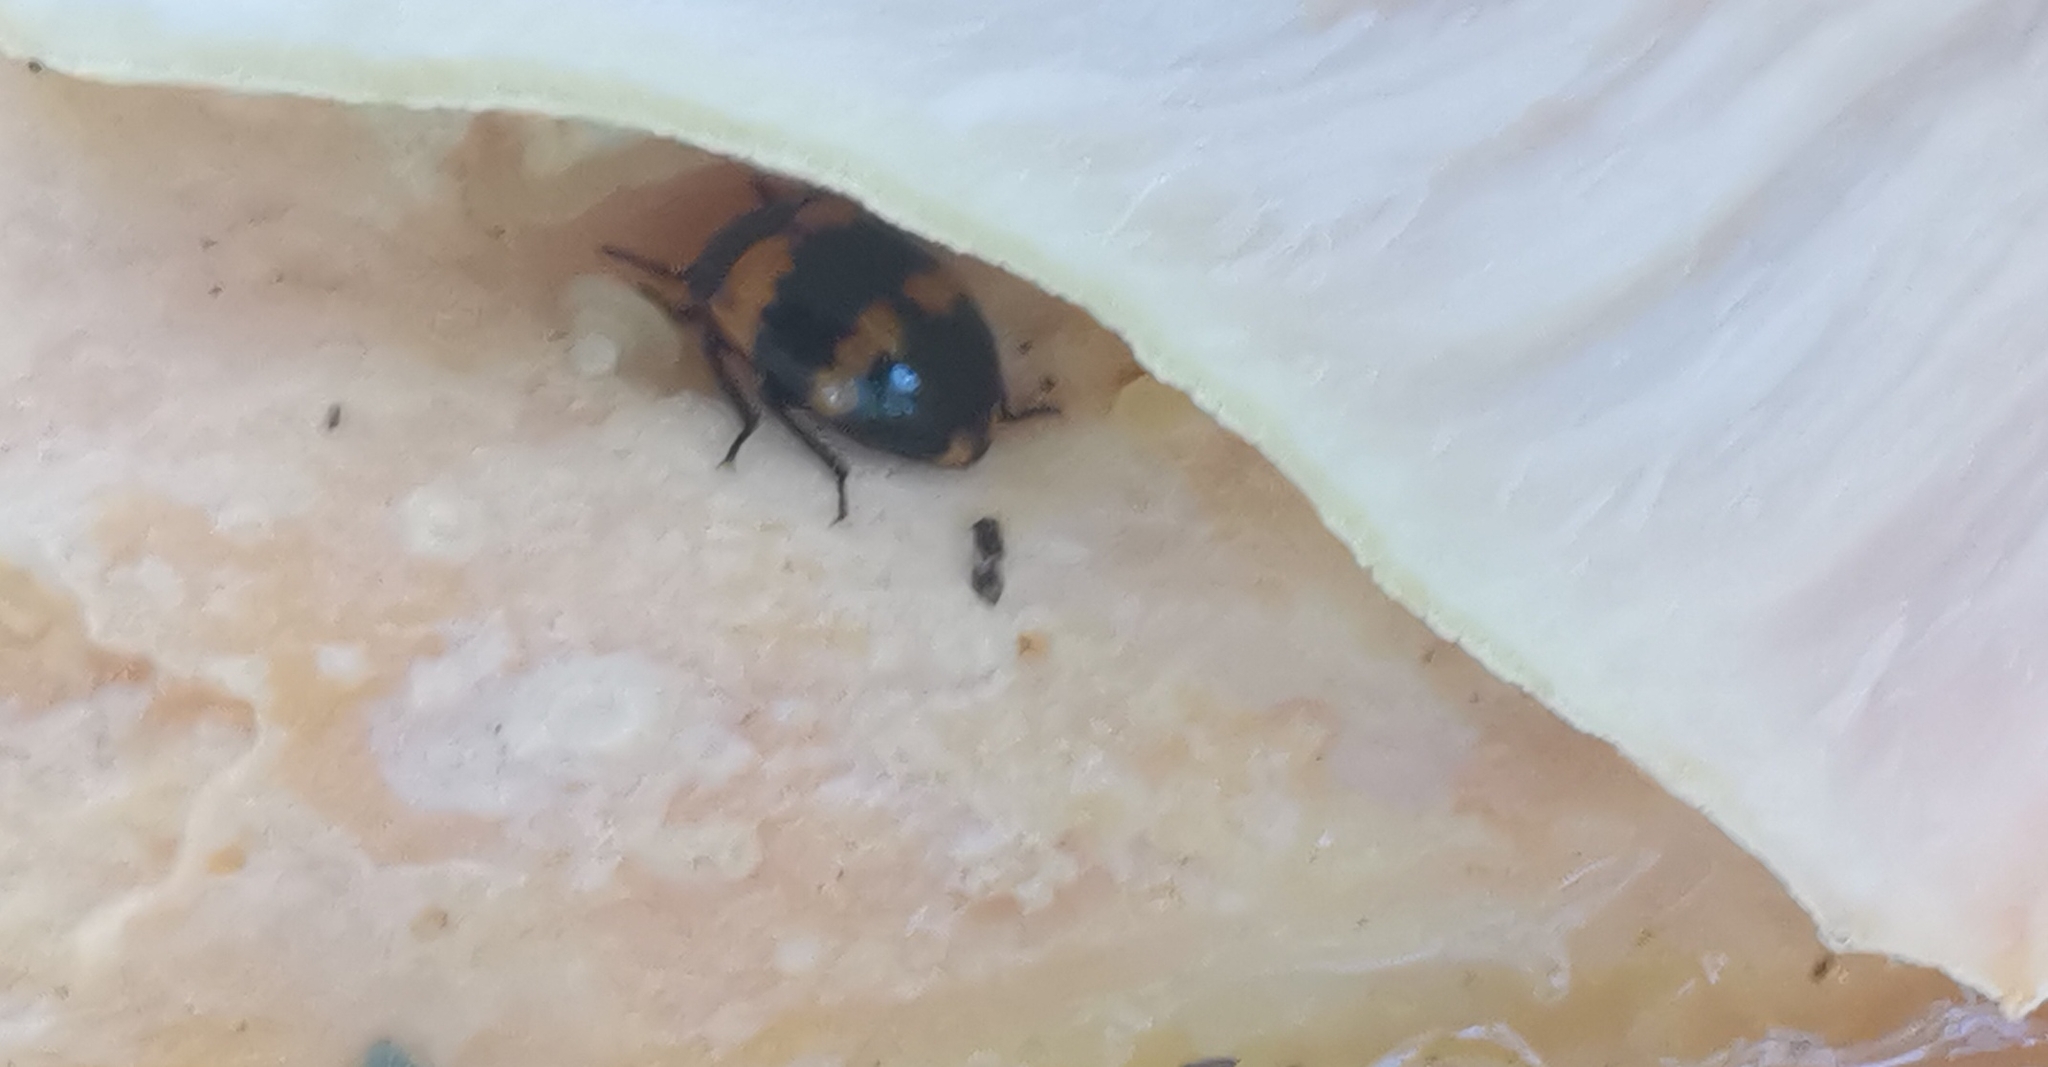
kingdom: Animalia
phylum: Arthropoda
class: Insecta
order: Coleoptera
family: Tenebrionidae
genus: Diaperis
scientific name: Diaperis boleti
